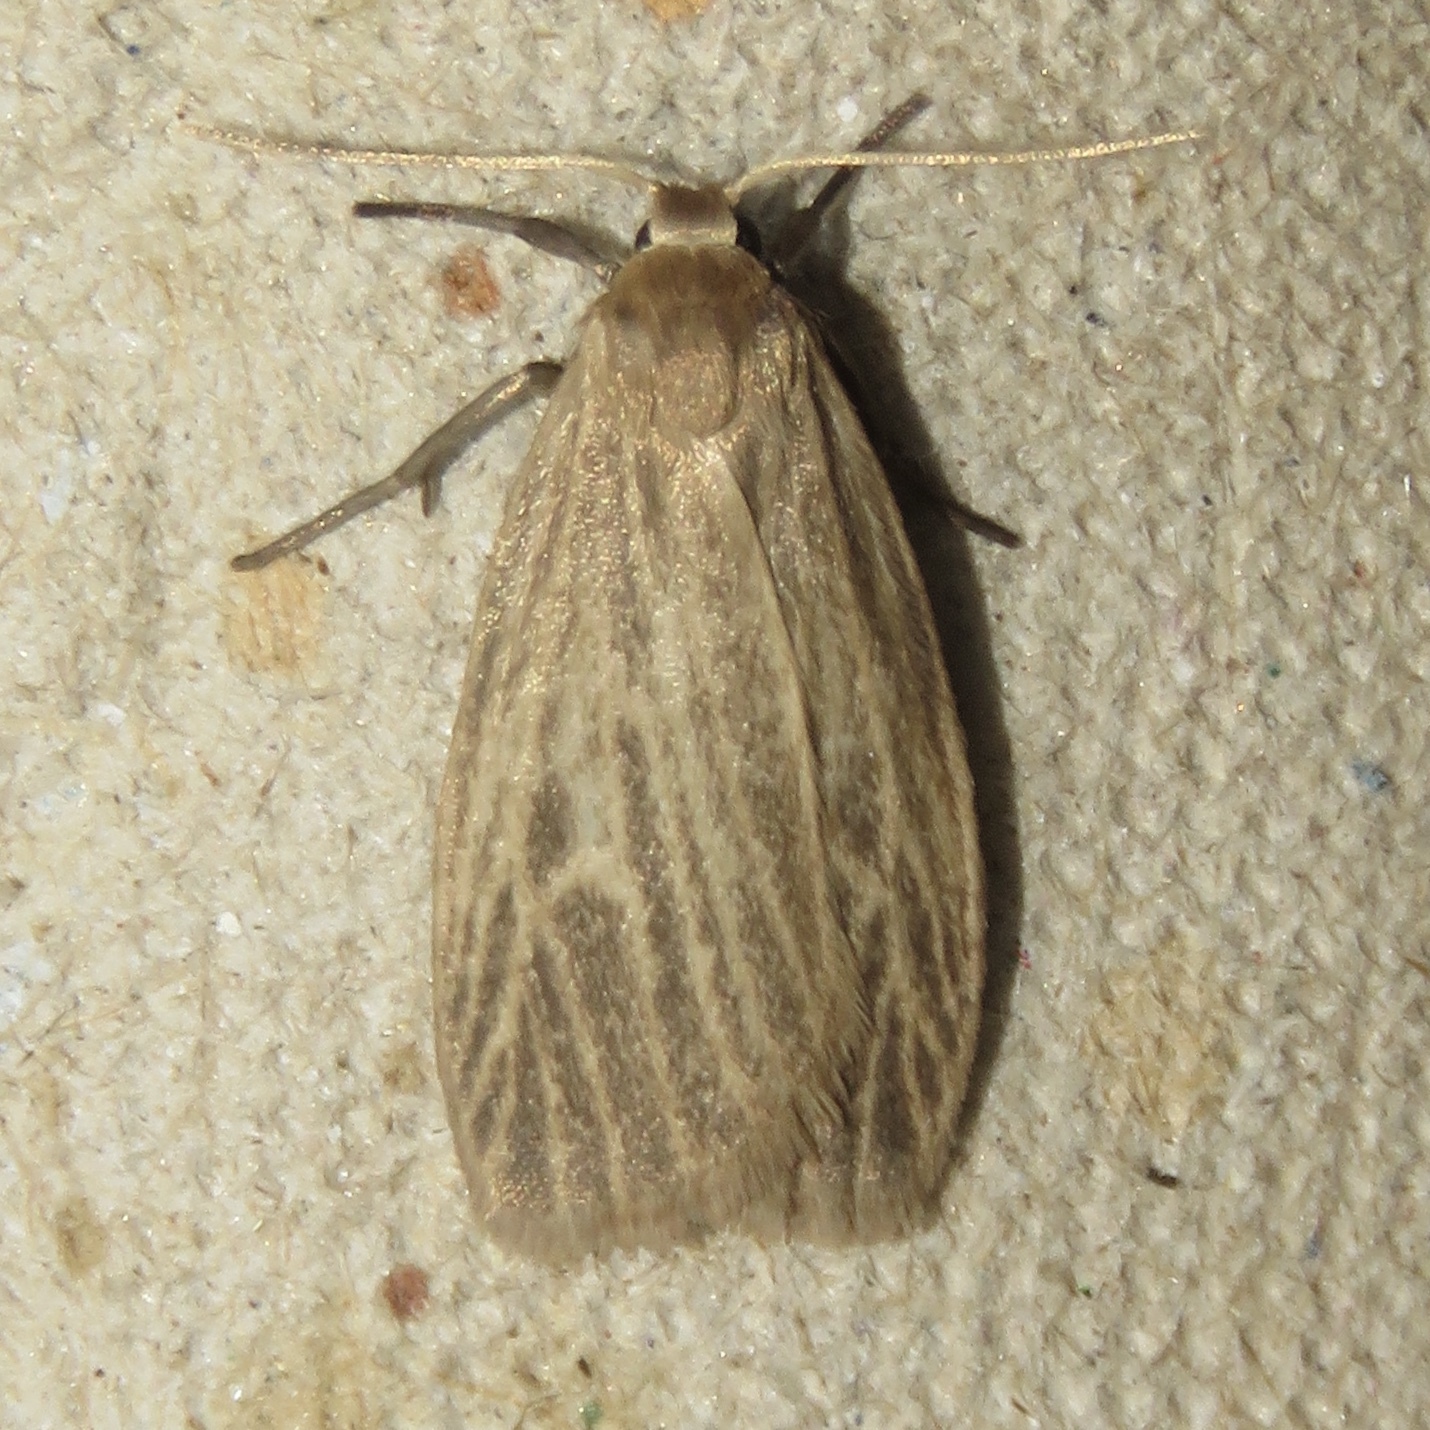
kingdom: Animalia
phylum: Arthropoda
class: Insecta
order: Lepidoptera
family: Erebidae
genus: Crambidia
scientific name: Crambidia pallida
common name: Pale lichen moth
